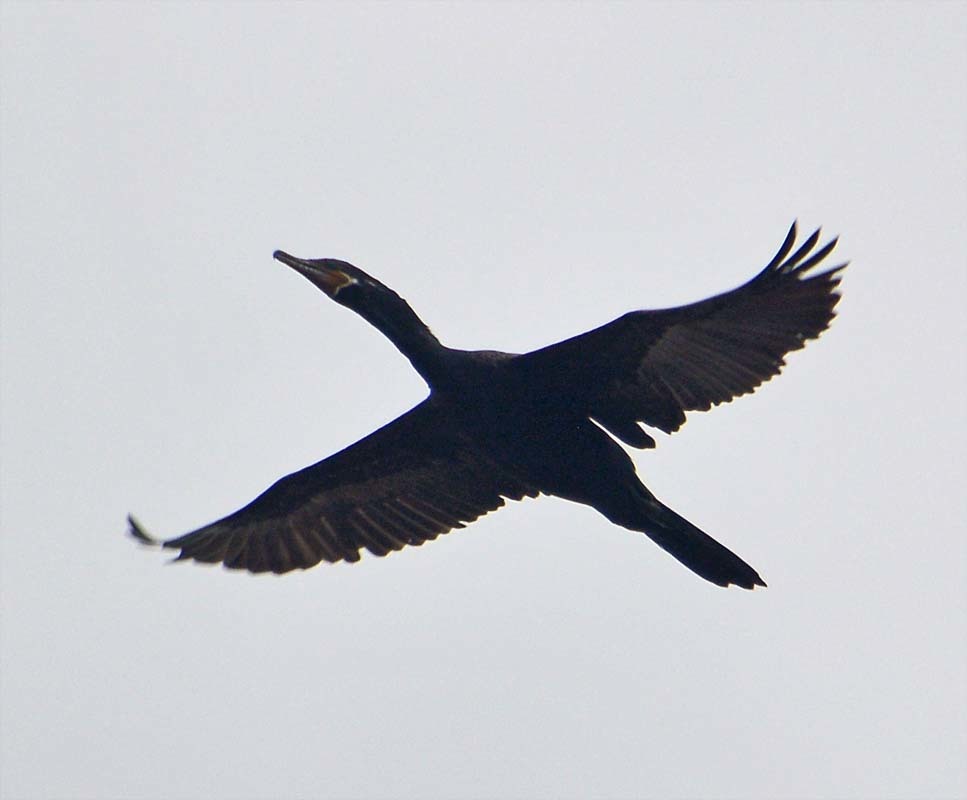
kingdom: Animalia
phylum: Chordata
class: Aves
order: Suliformes
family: Phalacrocoracidae
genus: Phalacrocorax
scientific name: Phalacrocorax brasilianus
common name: Neotropic cormorant
